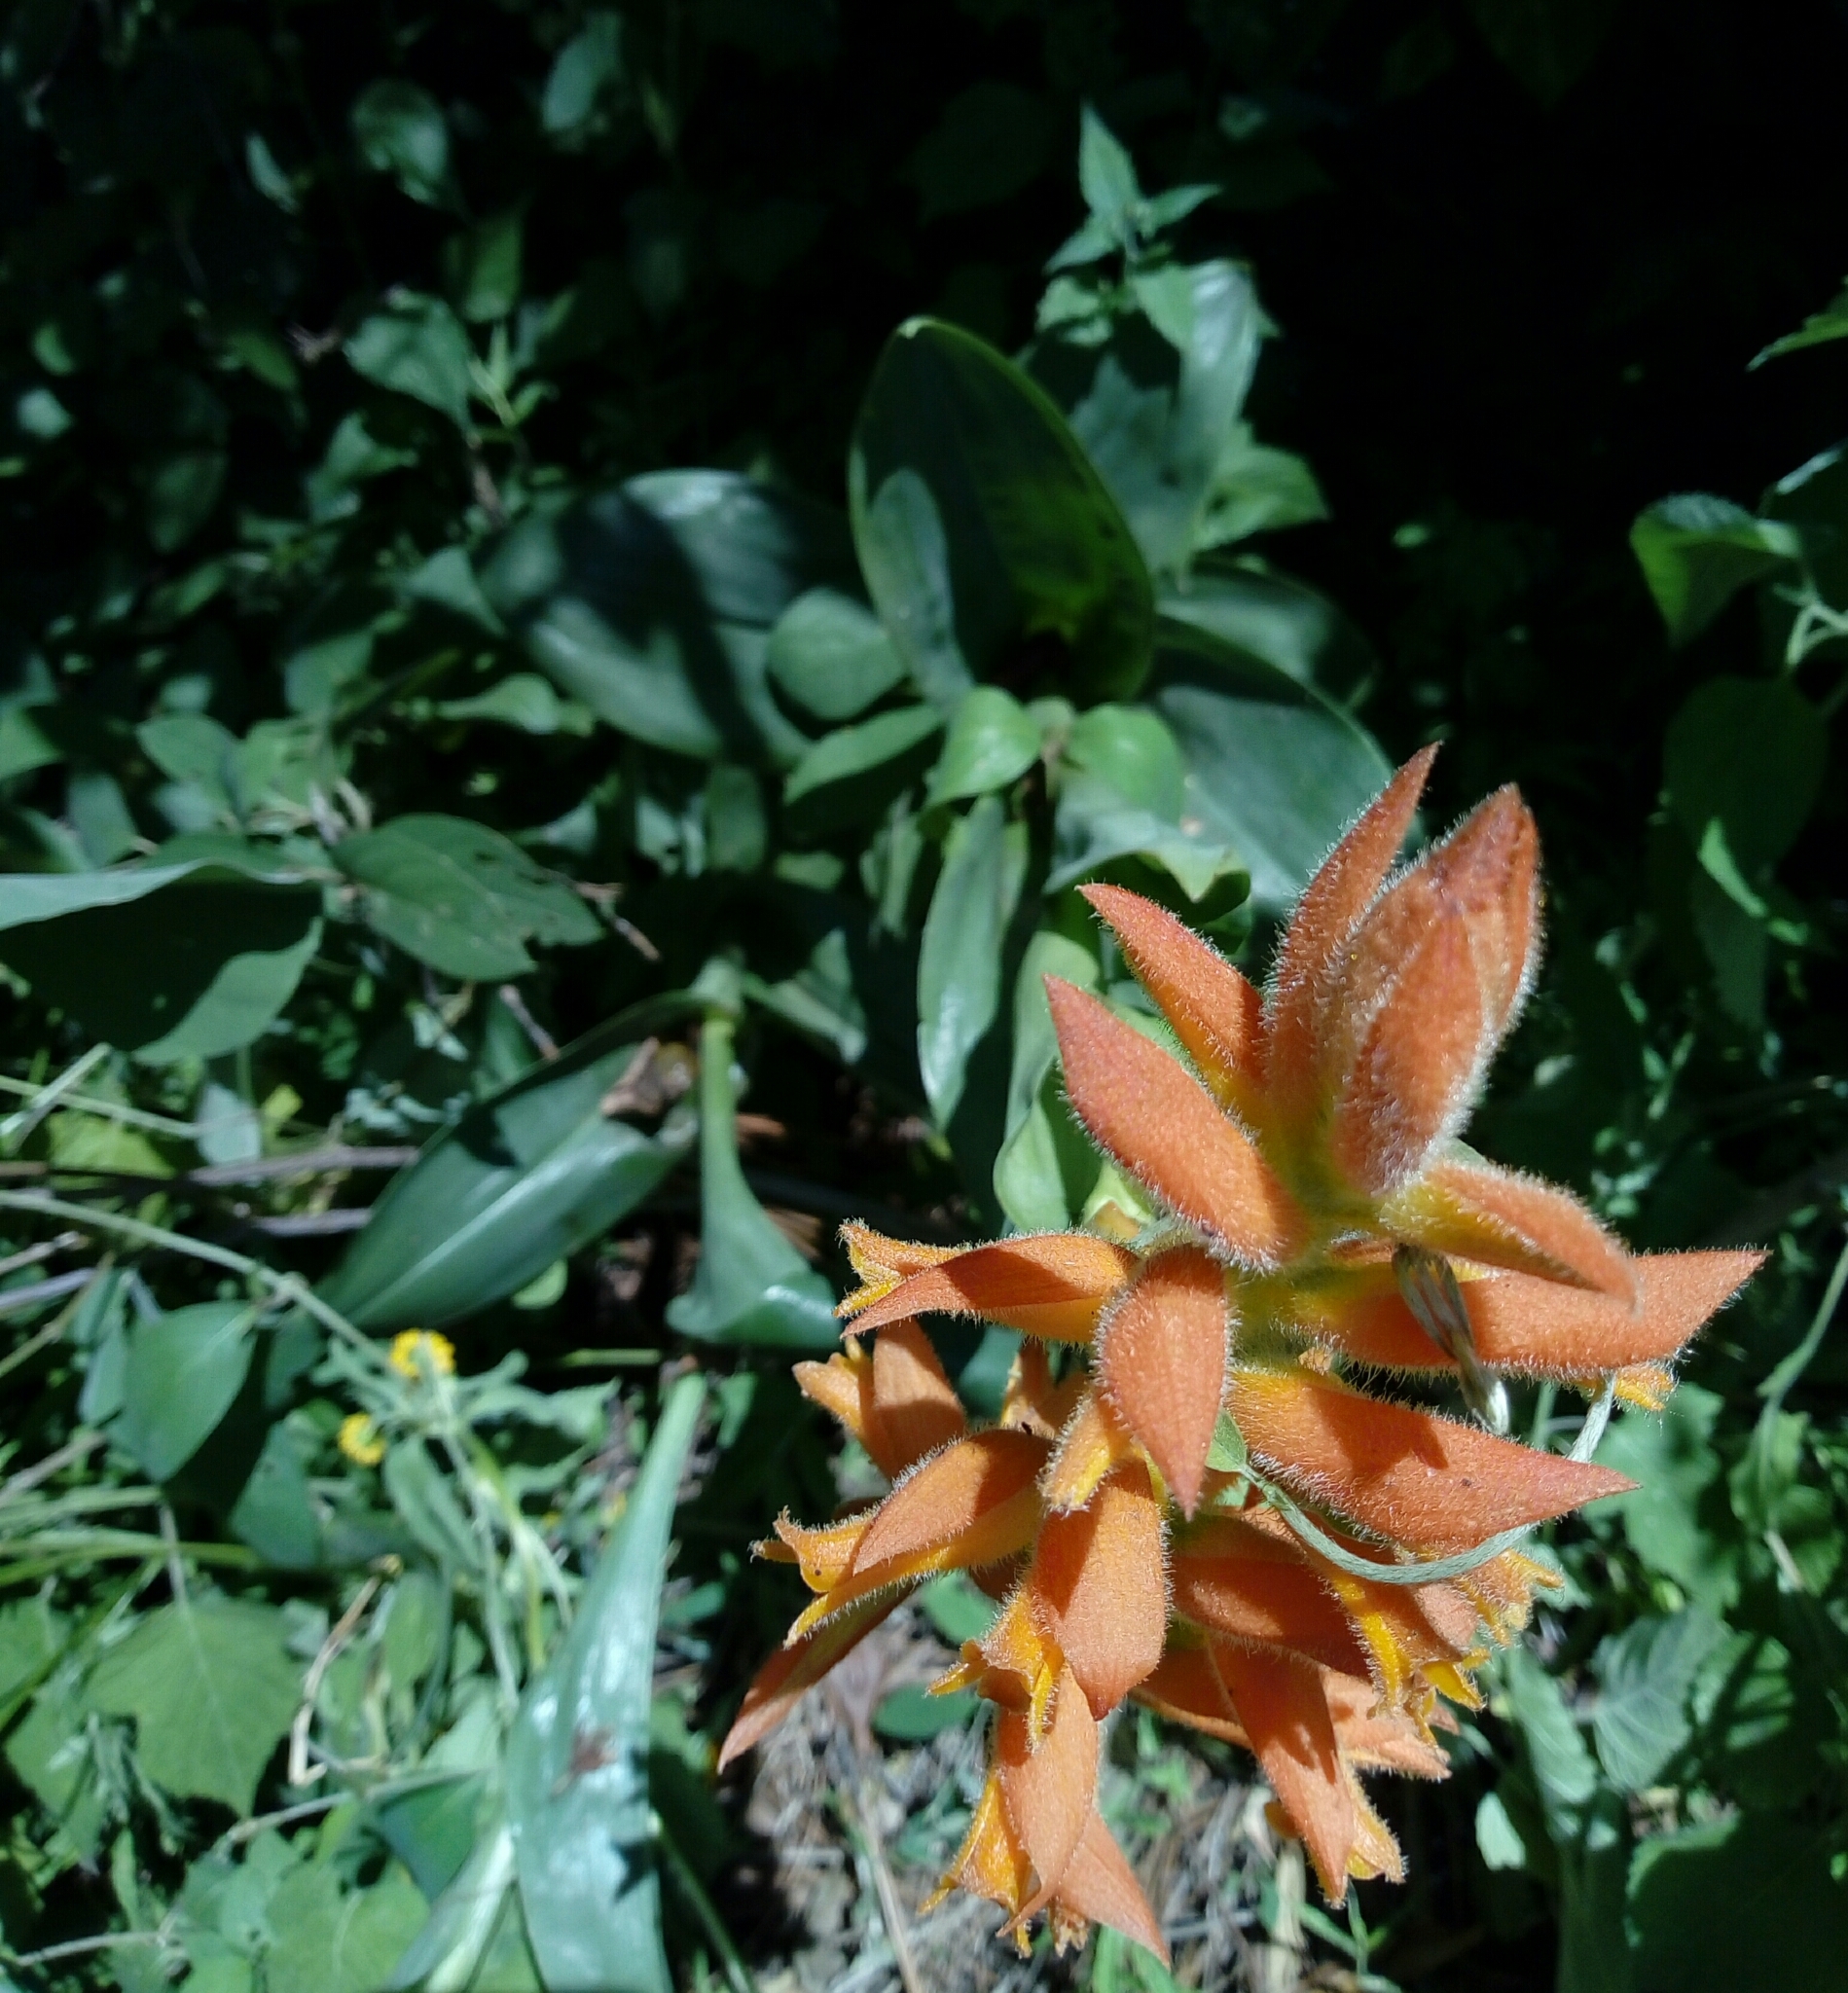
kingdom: Plantae
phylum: Tracheophyta
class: Liliopsida
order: Asparagales
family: Orchidaceae
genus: Dichromanthus
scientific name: Dichromanthus aurantiacus
